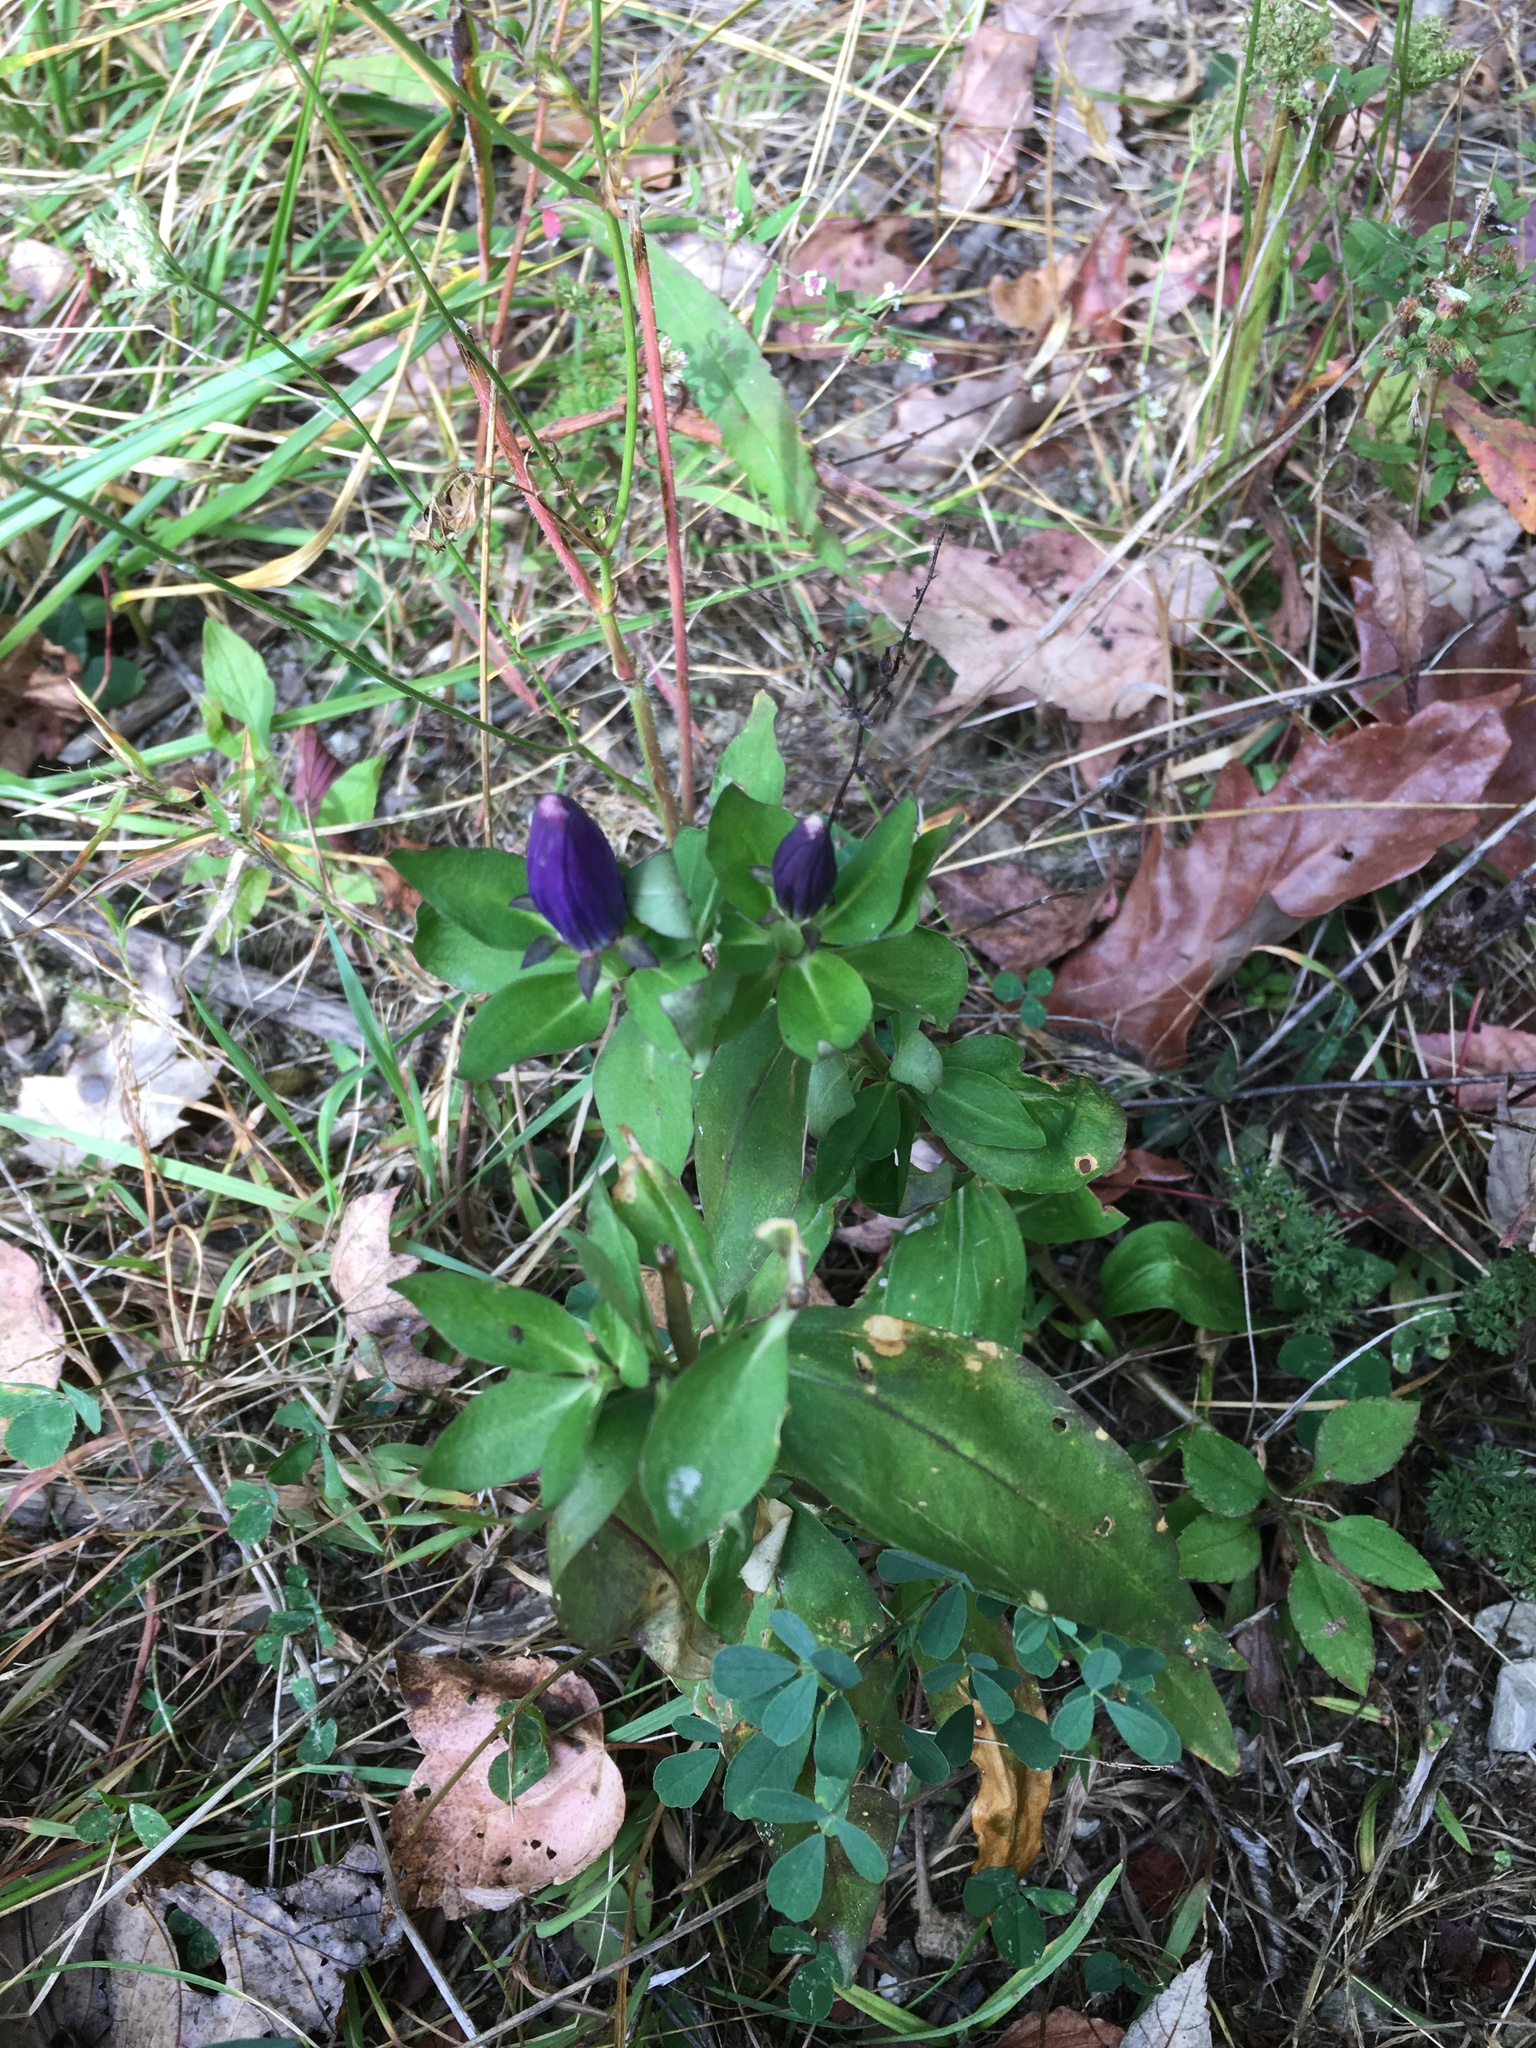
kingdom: Plantae
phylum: Tracheophyta
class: Magnoliopsida
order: Gentianales
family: Gentianaceae
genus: Gentiana
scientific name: Gentiana andrewsii
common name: Bottle gentian
